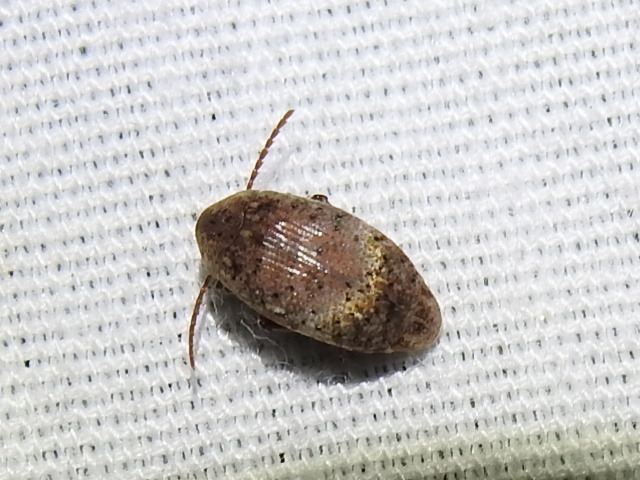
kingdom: Animalia
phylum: Arthropoda
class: Insecta
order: Coleoptera
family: Chrysomelidae
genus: Amblycerus
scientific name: Amblycerus robiniae
